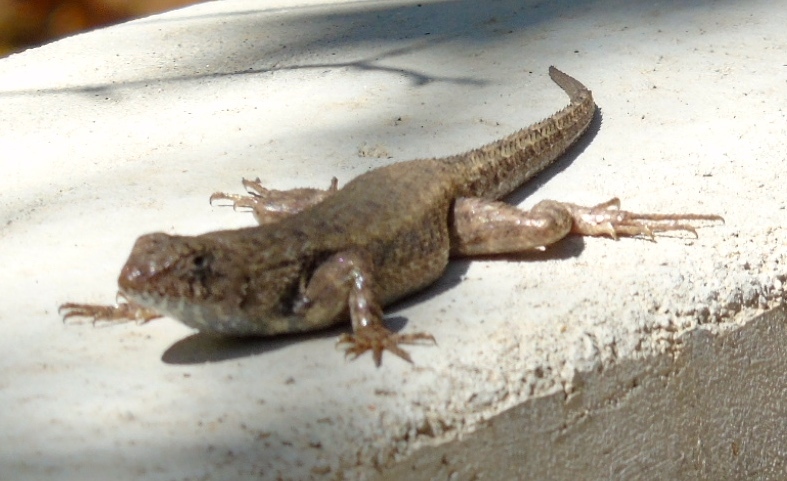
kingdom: Animalia
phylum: Chordata
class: Squamata
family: Phrynosomatidae
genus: Sceloporus
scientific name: Sceloporus nelsoni
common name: Nelson's spiny lizard
